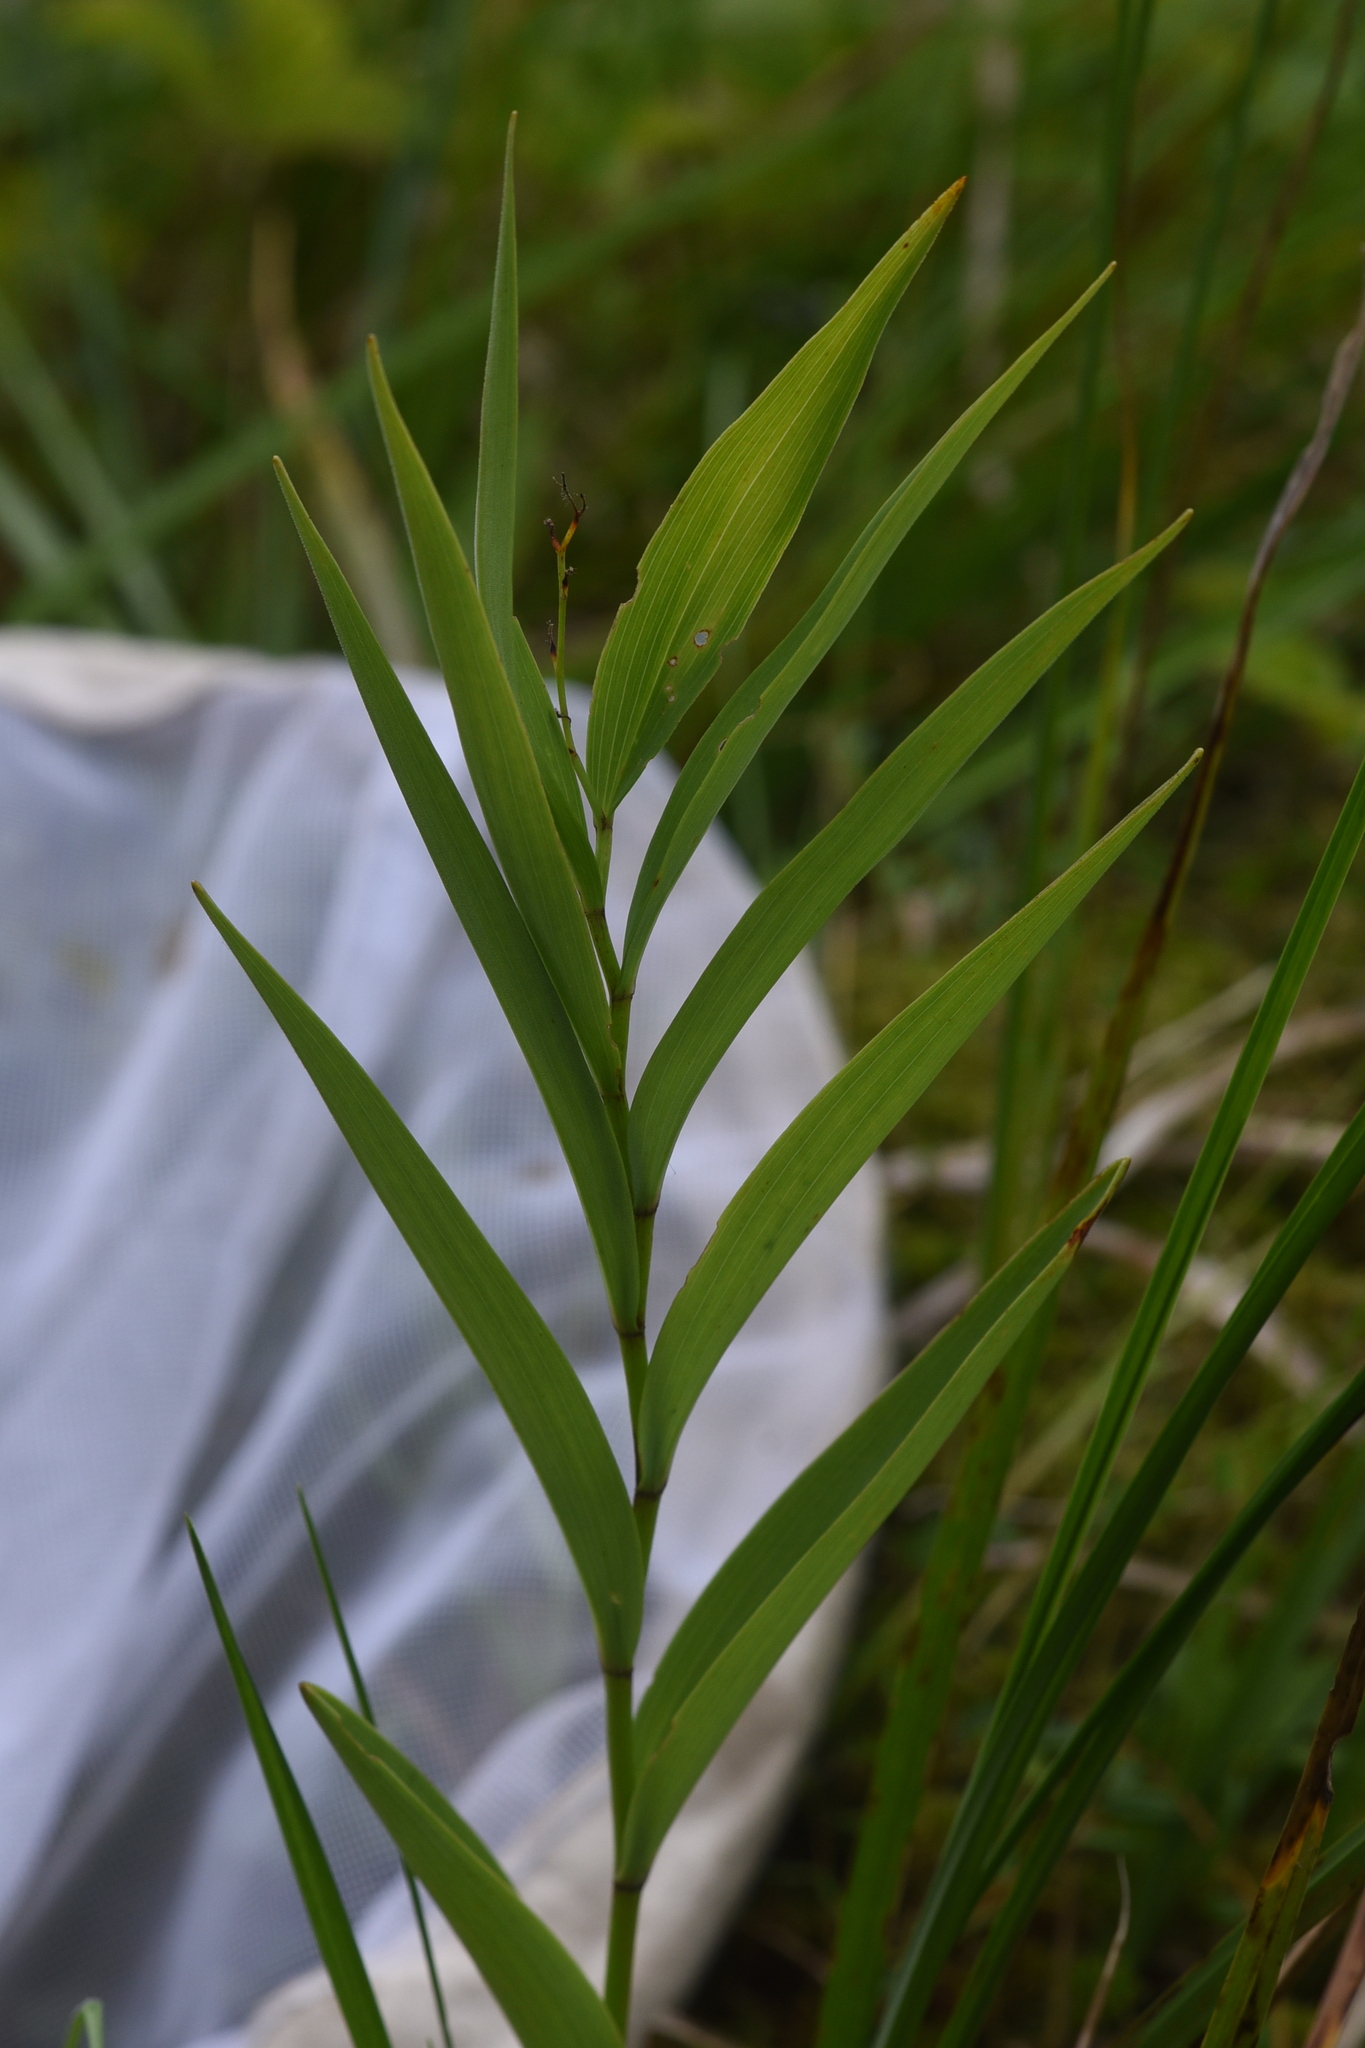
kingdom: Plantae
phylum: Tracheophyta
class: Liliopsida
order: Asparagales
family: Asparagaceae
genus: Maianthemum
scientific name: Maianthemum stellatum
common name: Little false solomon's seal
